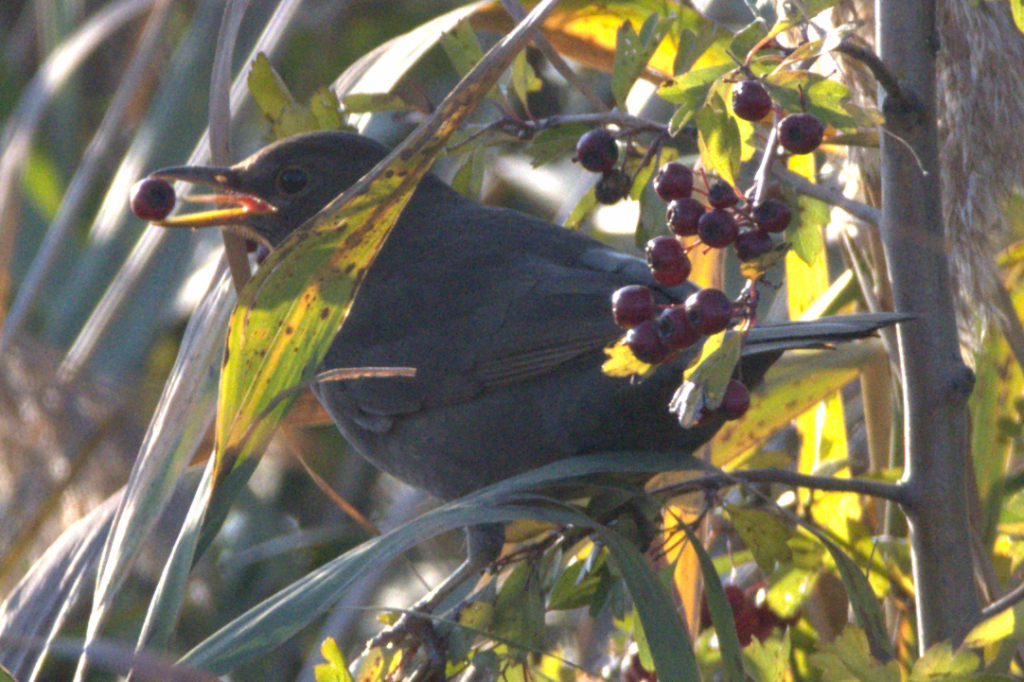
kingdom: Animalia
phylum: Chordata
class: Aves
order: Passeriformes
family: Turdidae
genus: Turdus
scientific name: Turdus merula
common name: Common blackbird
